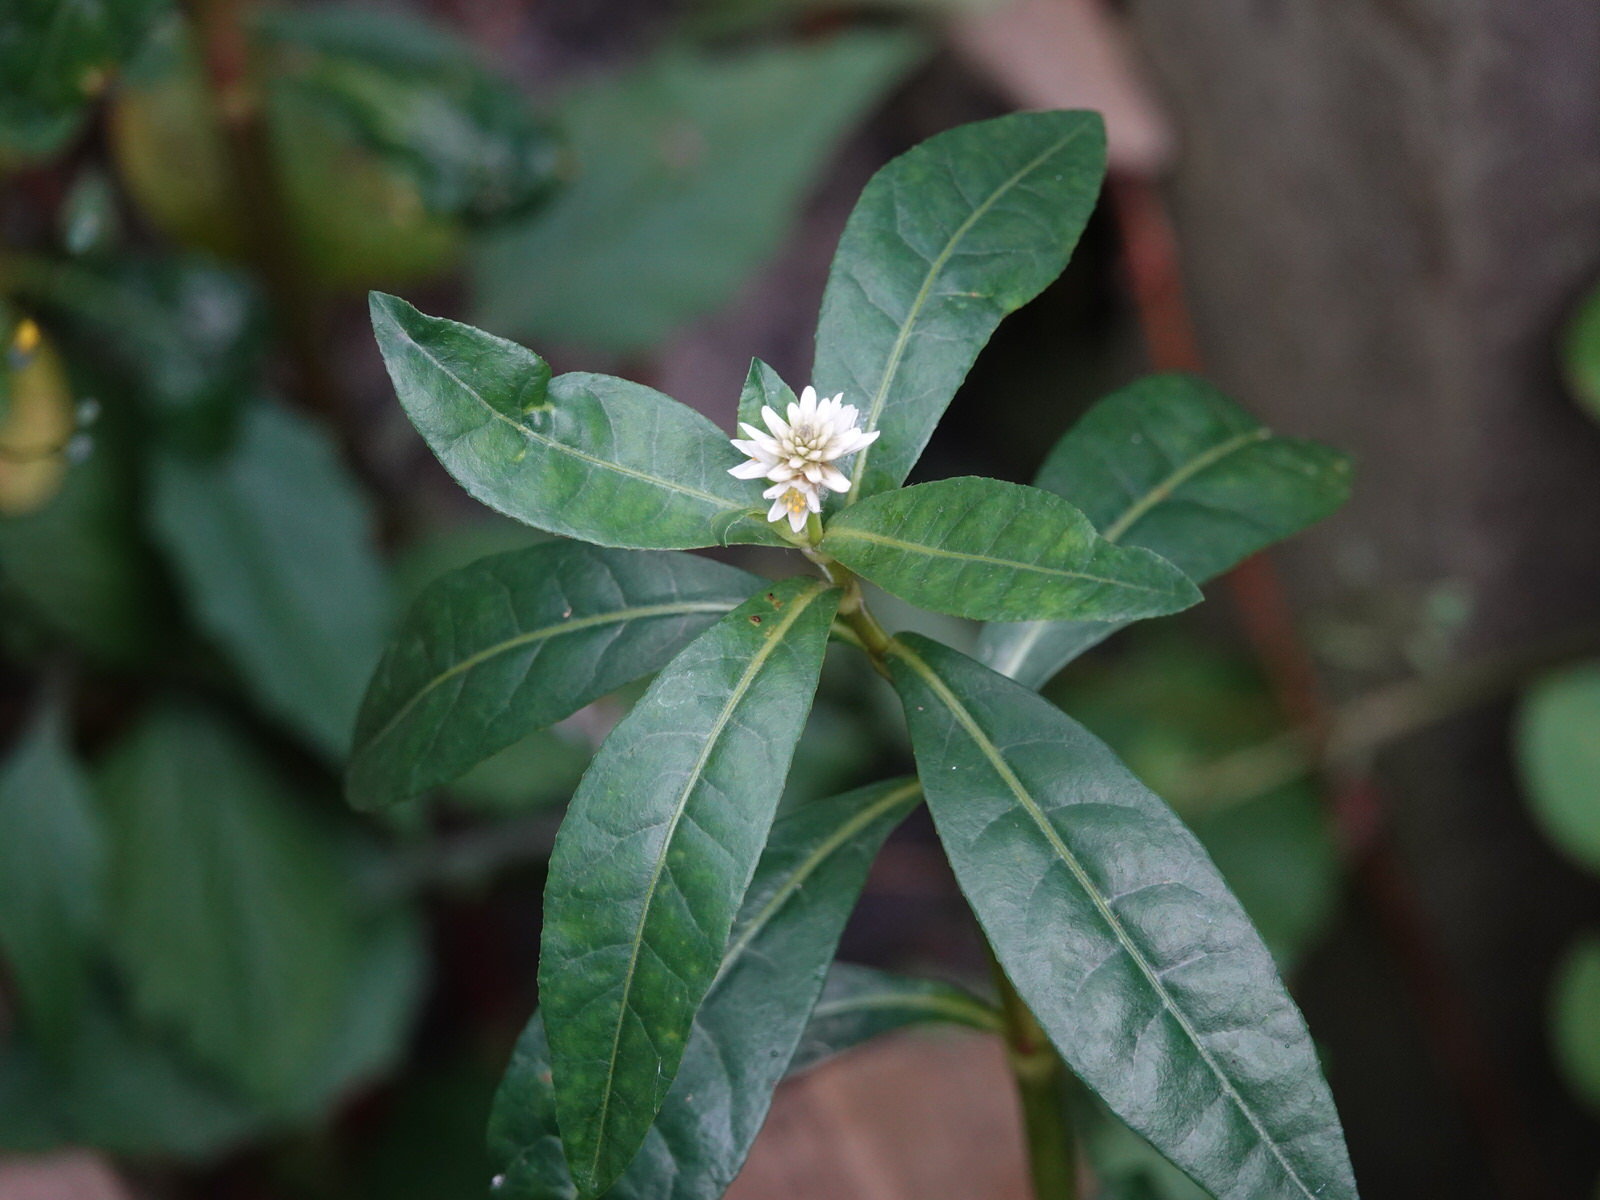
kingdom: Plantae
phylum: Tracheophyta
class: Magnoliopsida
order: Caryophyllales
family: Amaranthaceae
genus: Alternanthera
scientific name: Alternanthera philoxeroides
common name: Alligatorweed
